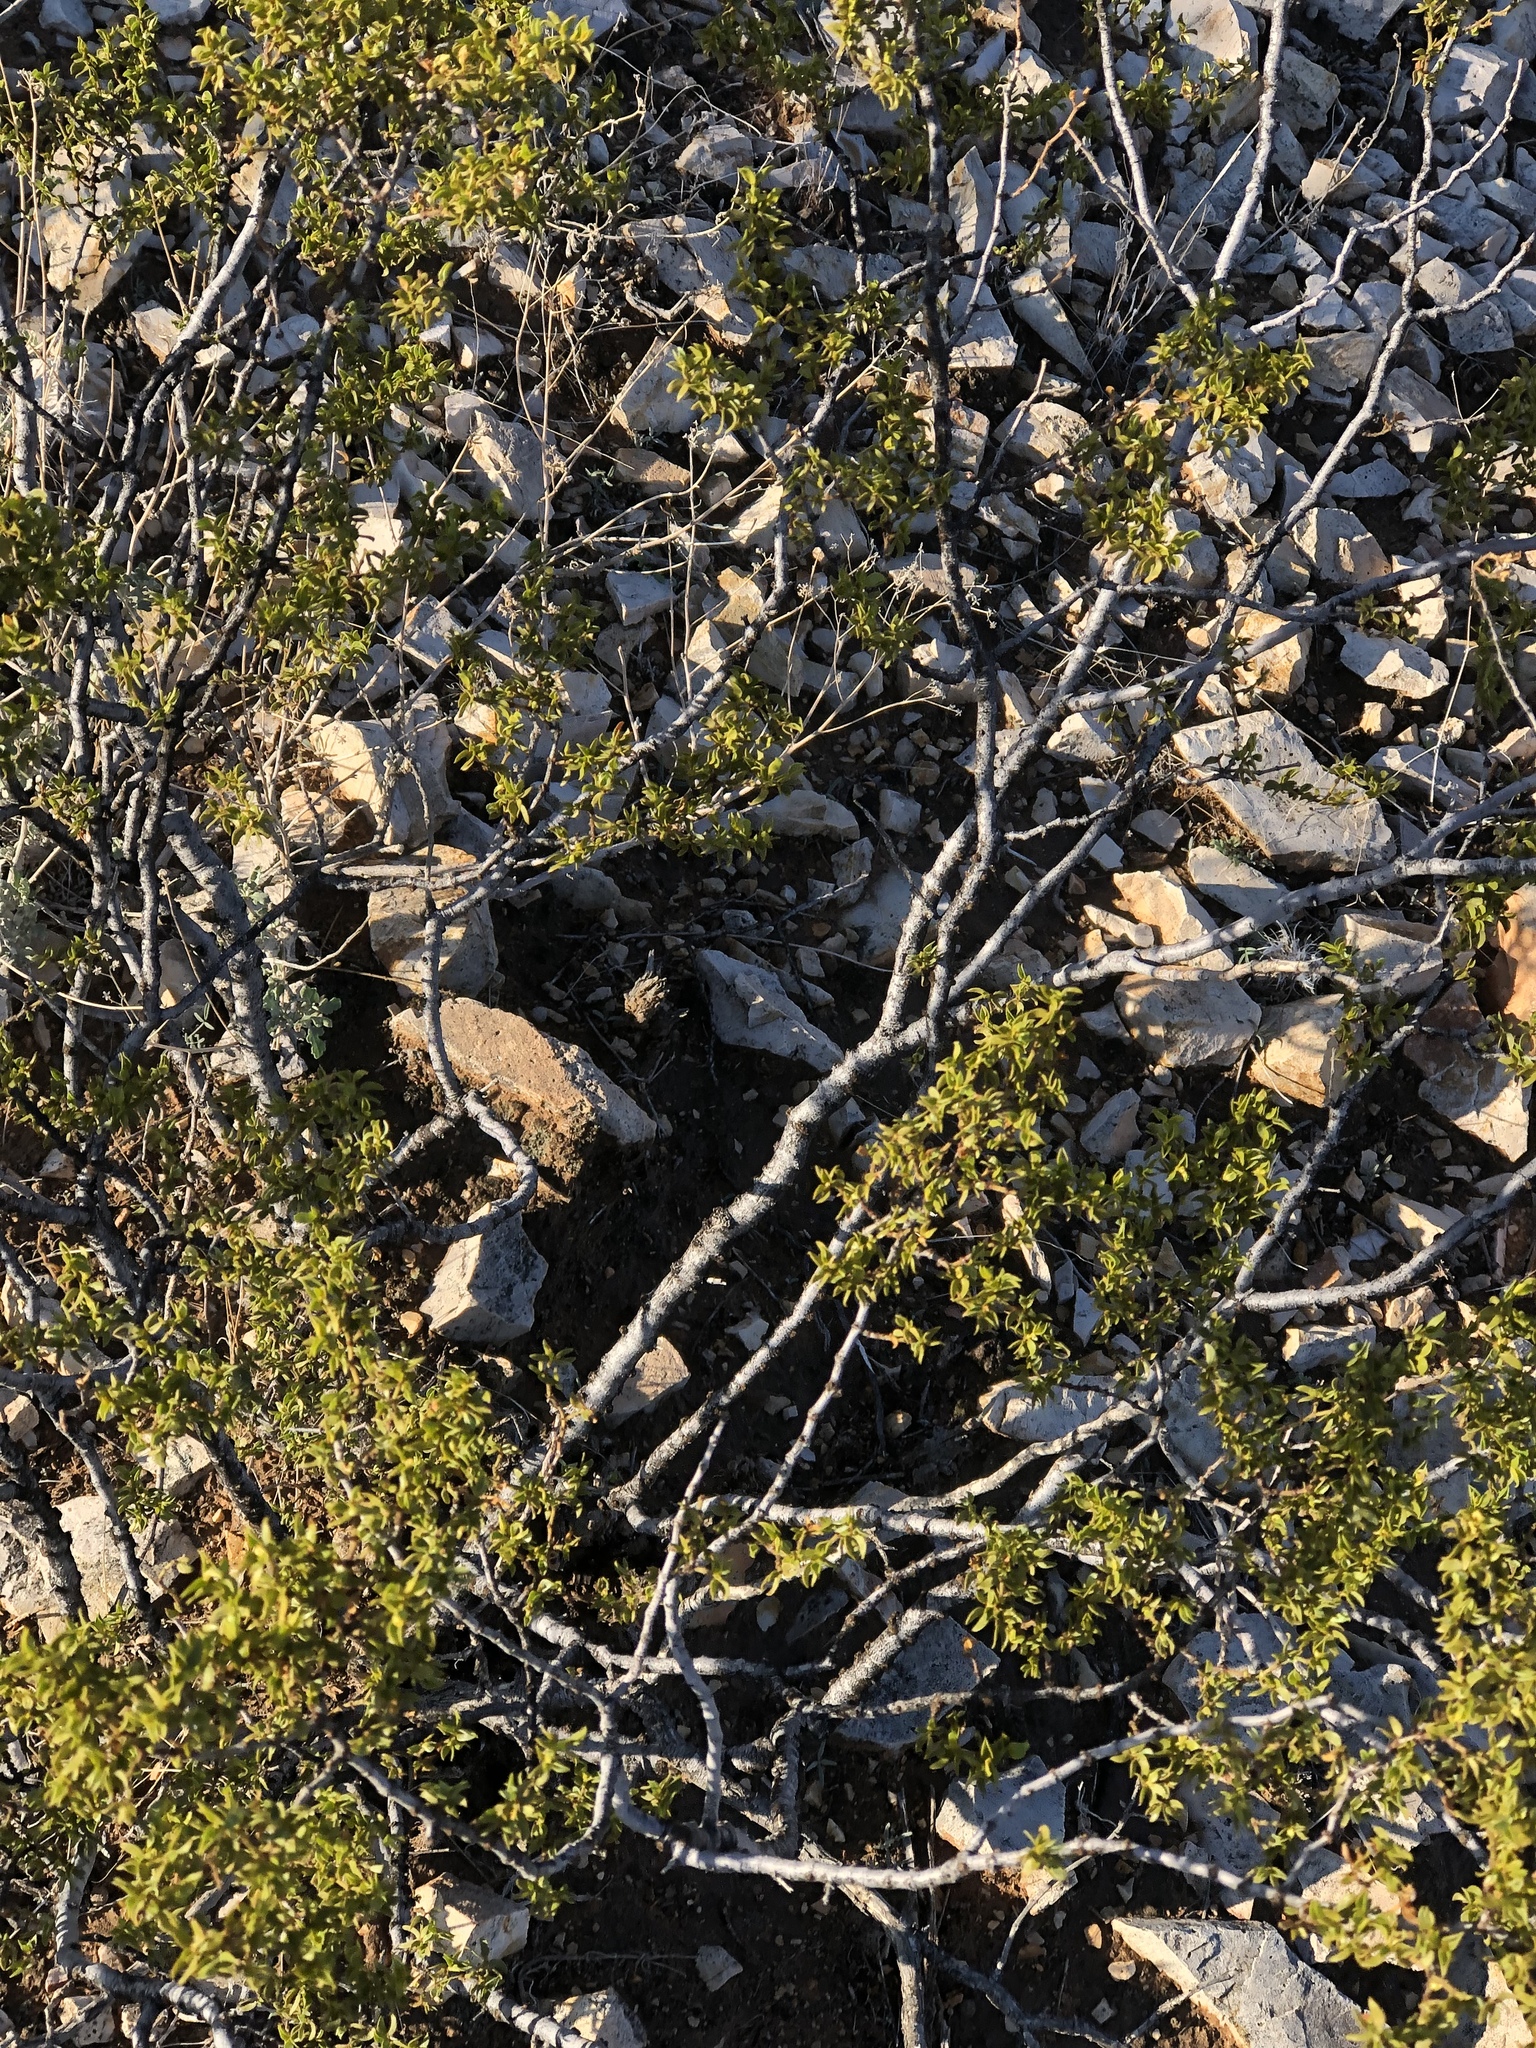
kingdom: Plantae
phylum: Tracheophyta
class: Magnoliopsida
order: Zygophyllales
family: Zygophyllaceae
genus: Larrea
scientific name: Larrea tridentata
